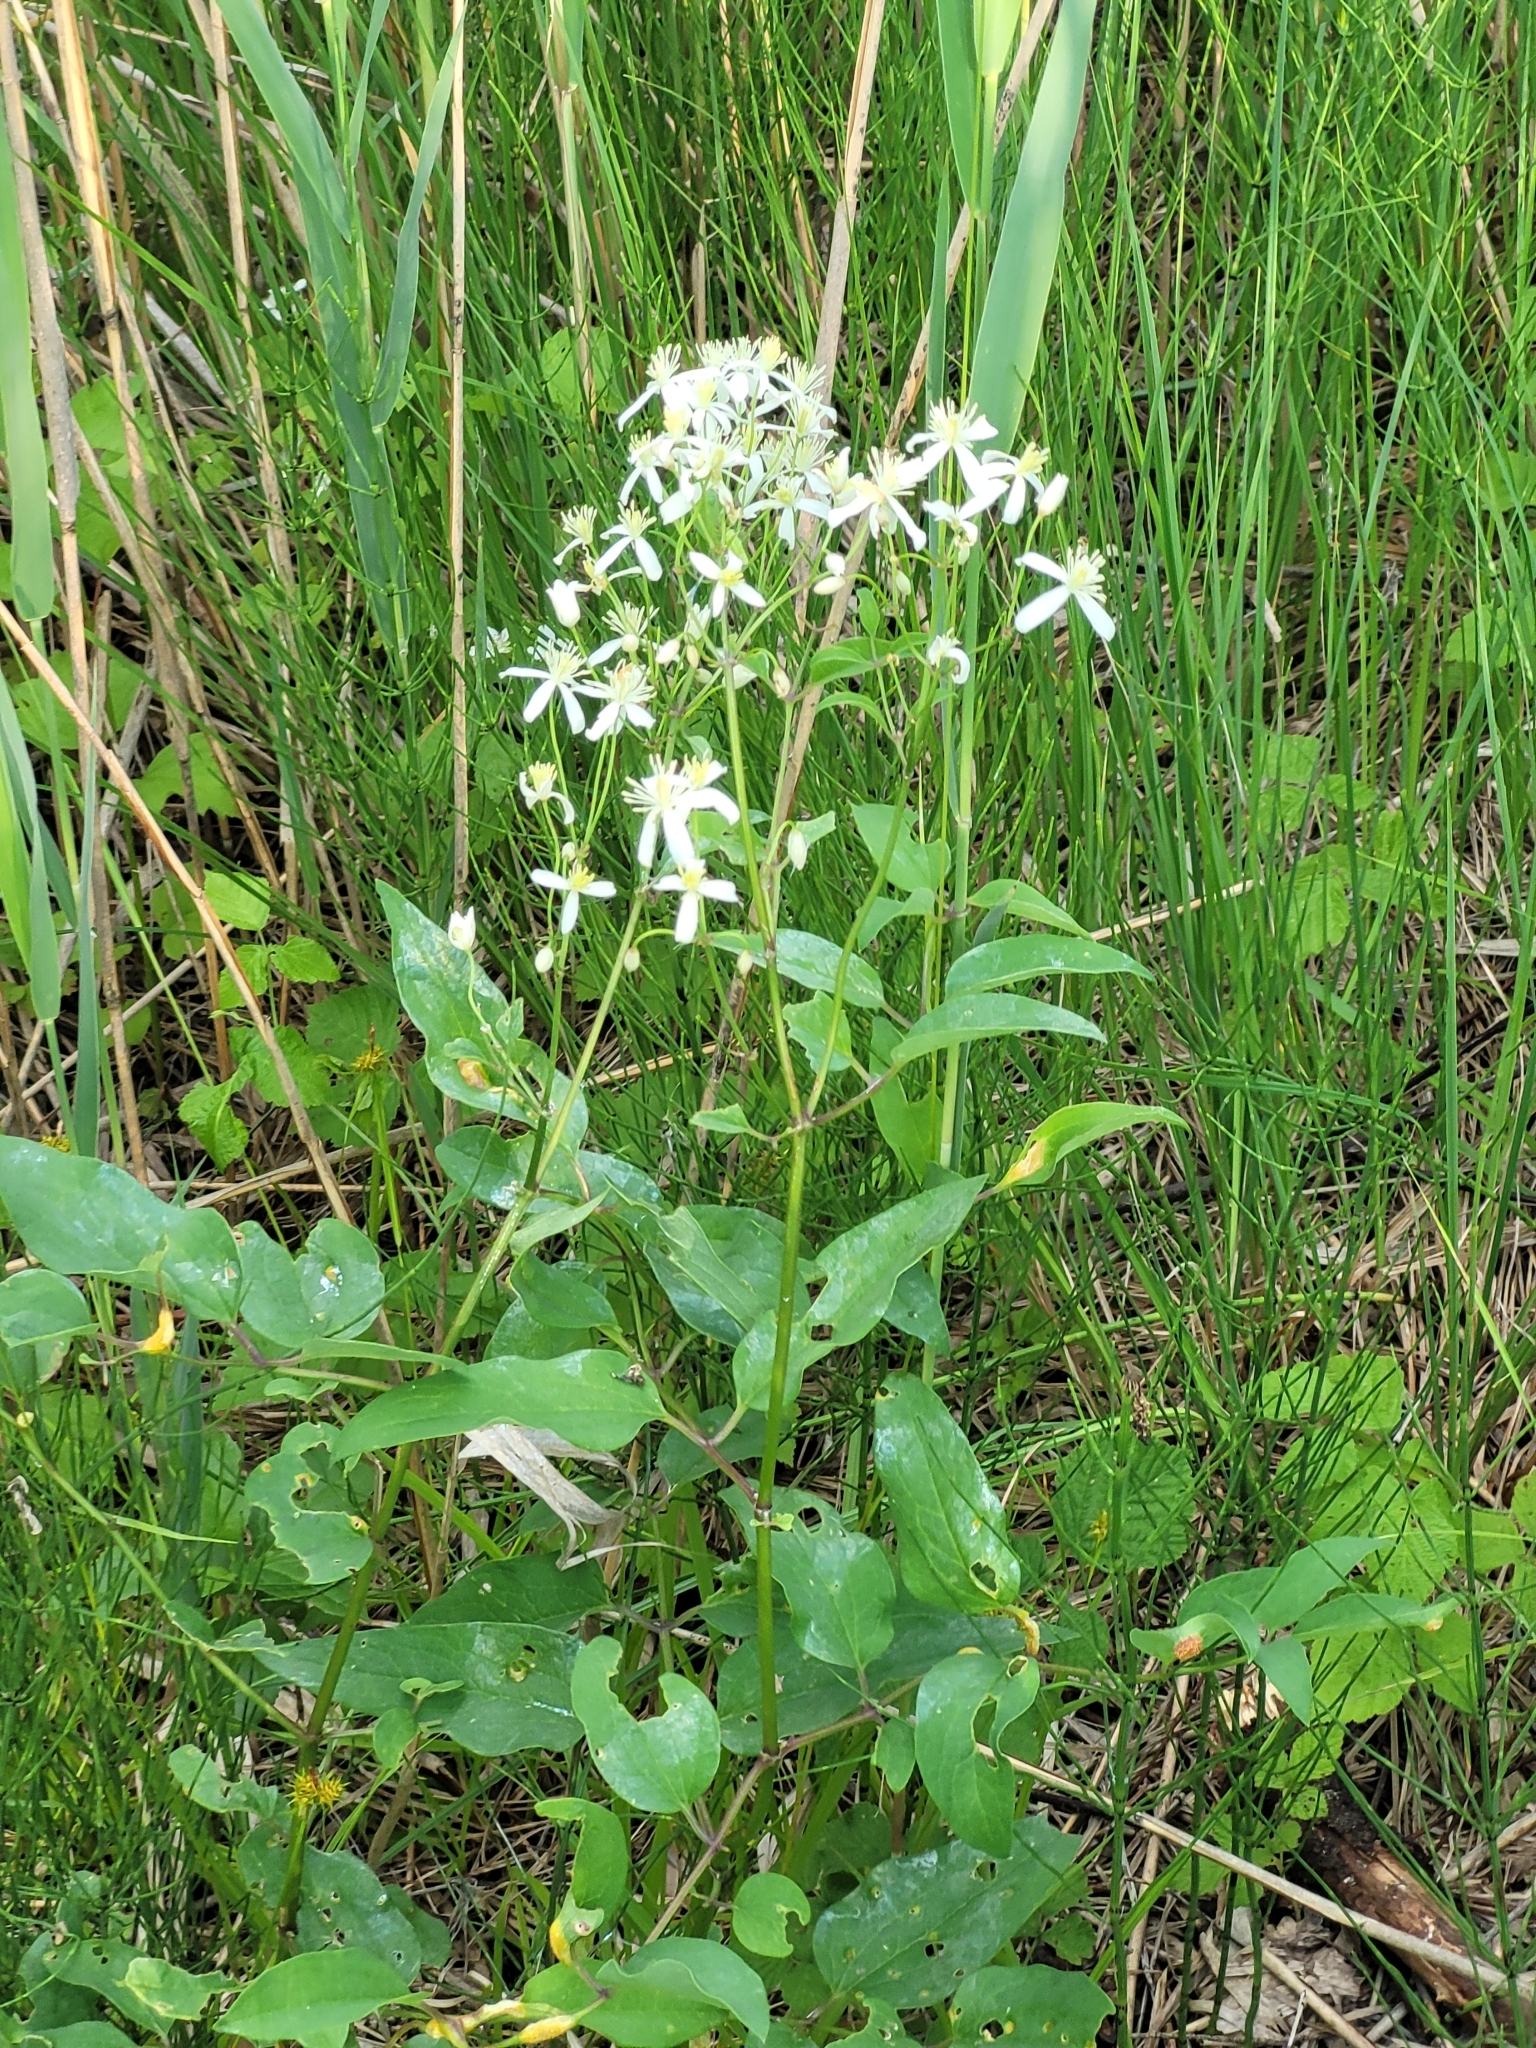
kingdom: Plantae
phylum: Tracheophyta
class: Magnoliopsida
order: Ranunculales
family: Ranunculaceae
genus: Clematis
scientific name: Clematis recta
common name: Ground clematis
